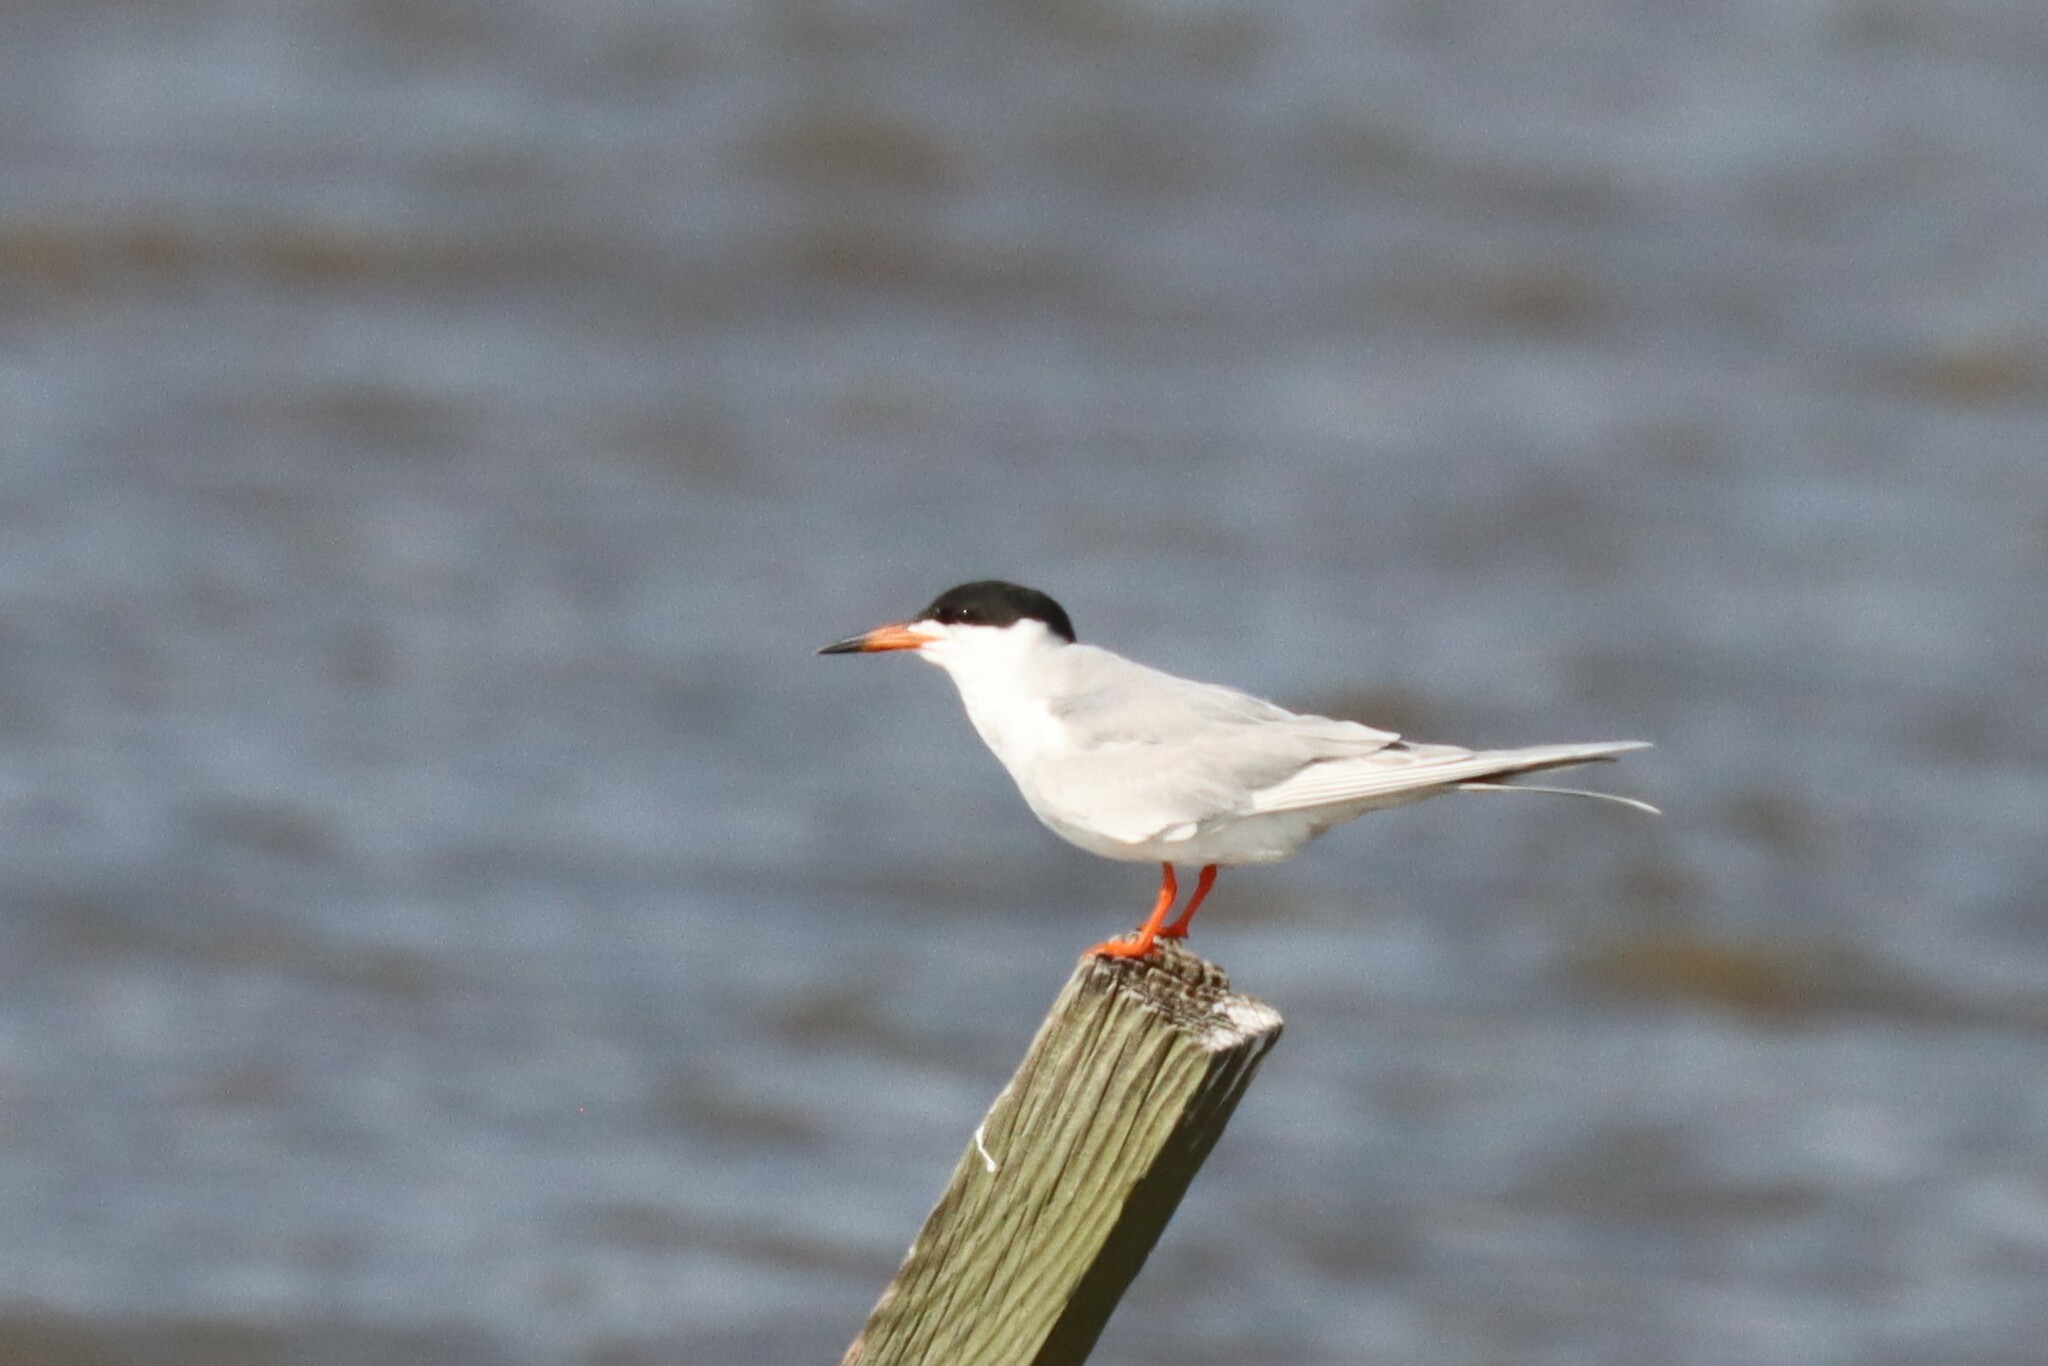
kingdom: Animalia
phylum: Chordata
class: Aves
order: Charadriiformes
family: Laridae
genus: Sterna
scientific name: Sterna forsteri
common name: Forster's tern
